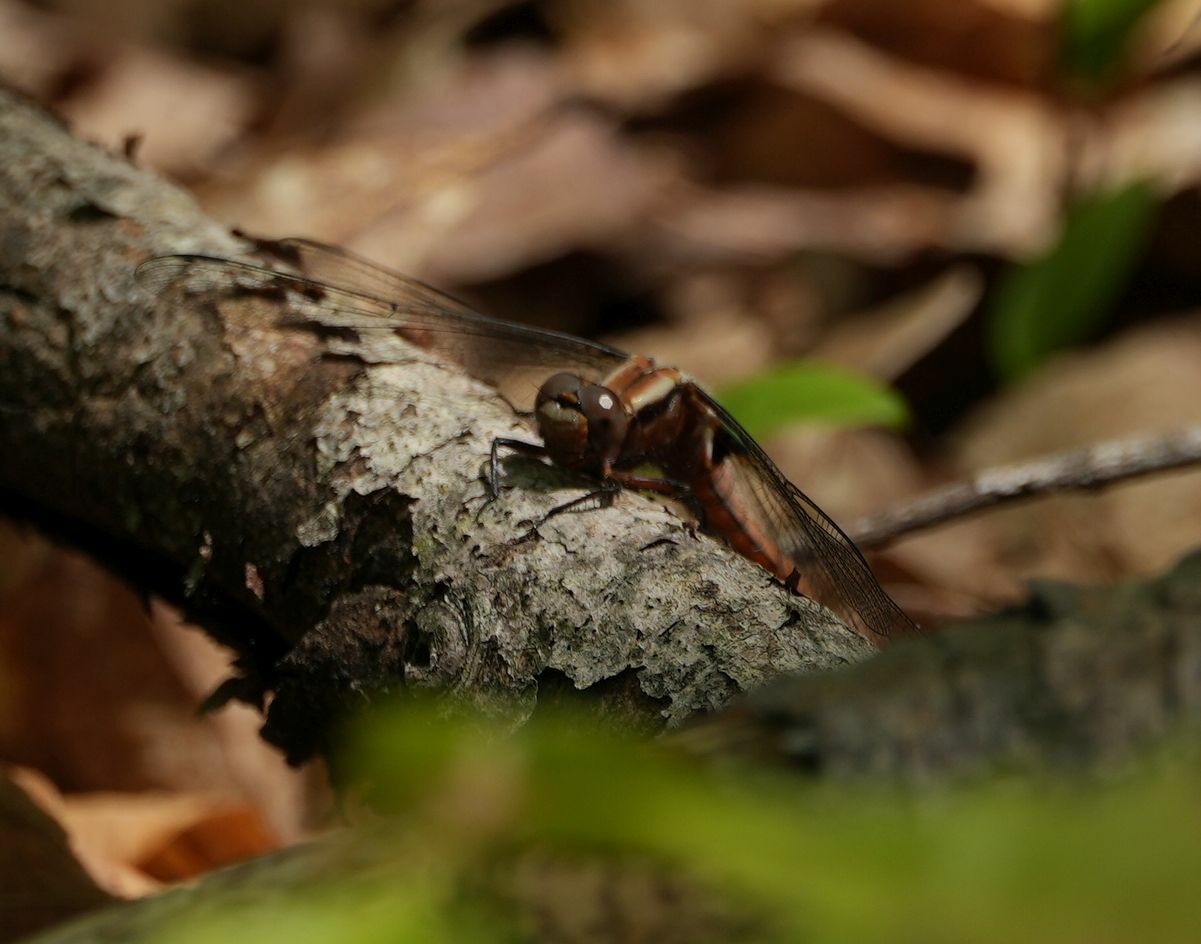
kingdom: Animalia
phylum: Arthropoda
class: Insecta
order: Odonata
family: Libellulidae
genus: Ladona
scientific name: Ladona julia
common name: Chalk-fronted corporal
